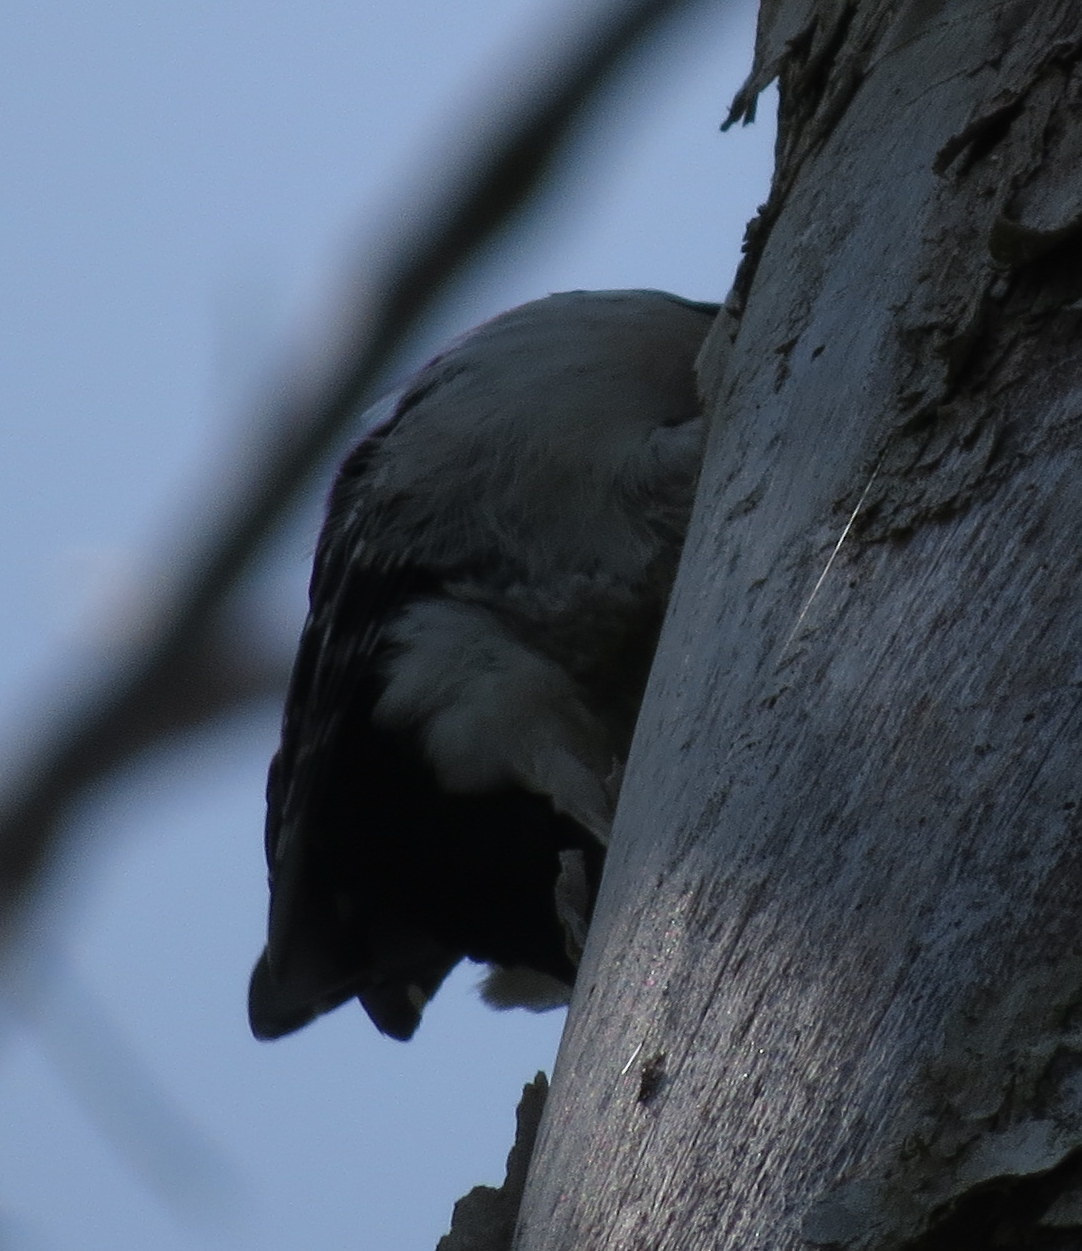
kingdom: Animalia
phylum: Chordata
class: Aves
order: Piciformes
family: Picidae
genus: Dryobates
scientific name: Dryobates pubescens
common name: Downy woodpecker
